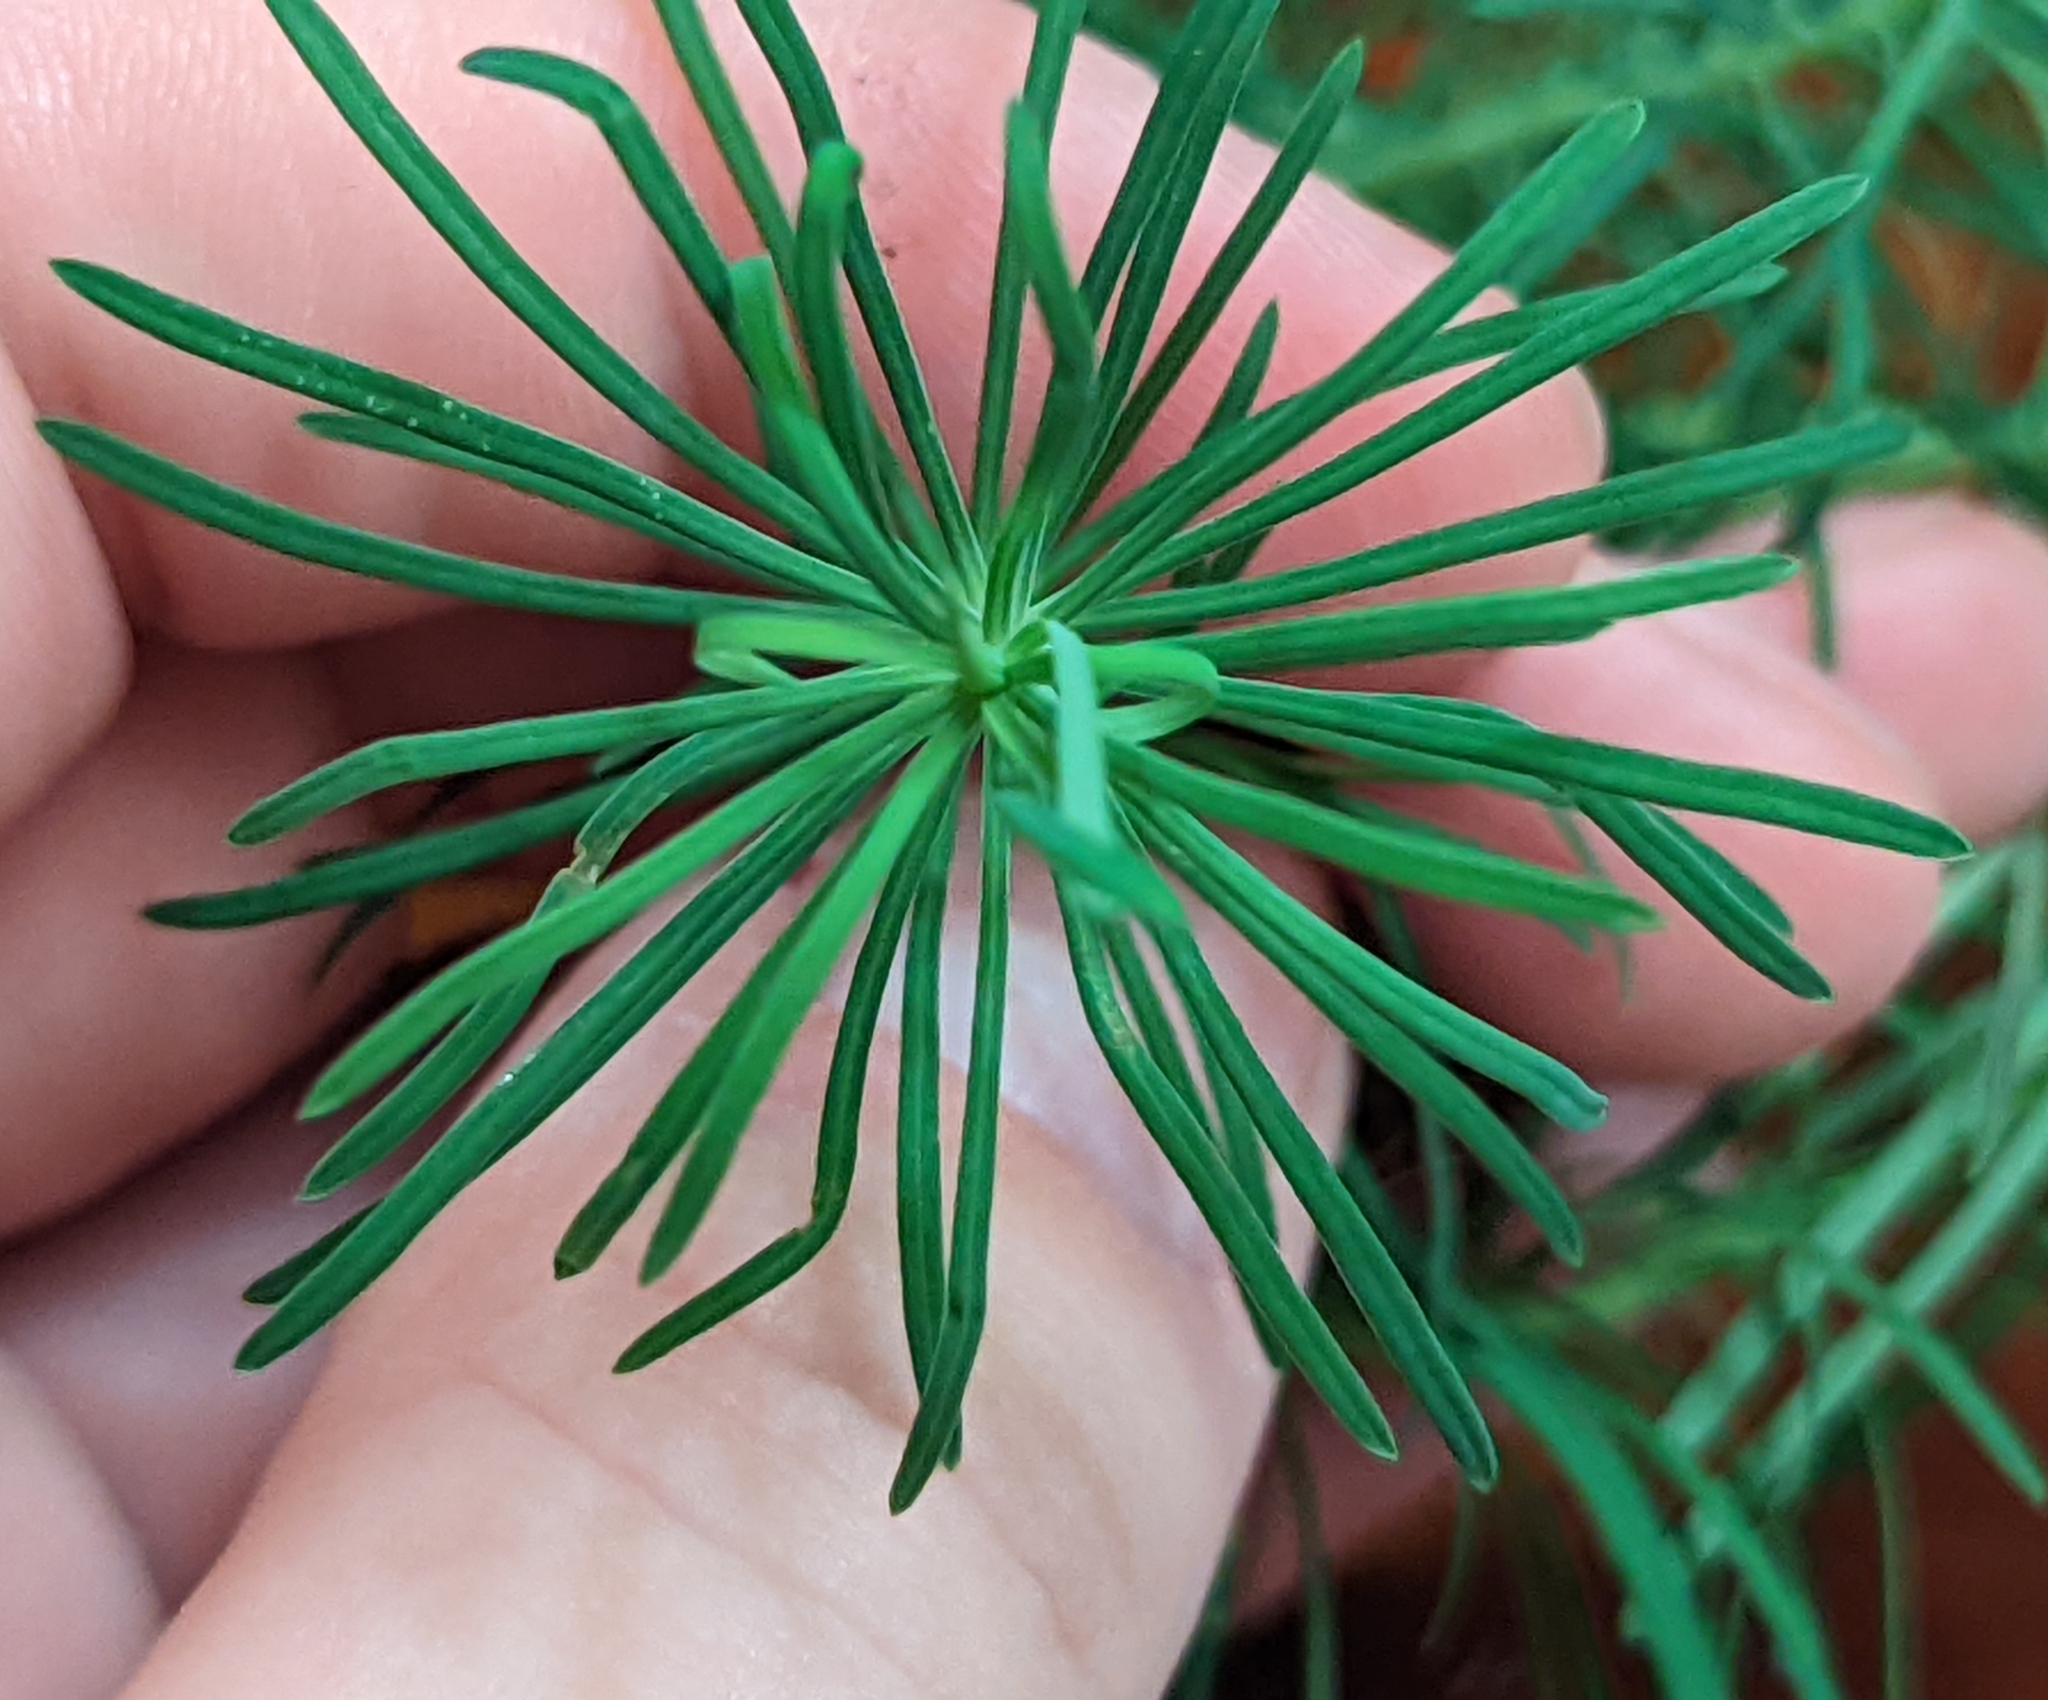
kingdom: Plantae
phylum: Tracheophyta
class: Magnoliopsida
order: Malpighiales
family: Euphorbiaceae
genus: Euphorbia
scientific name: Euphorbia cyparissias
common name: Cypress spurge
